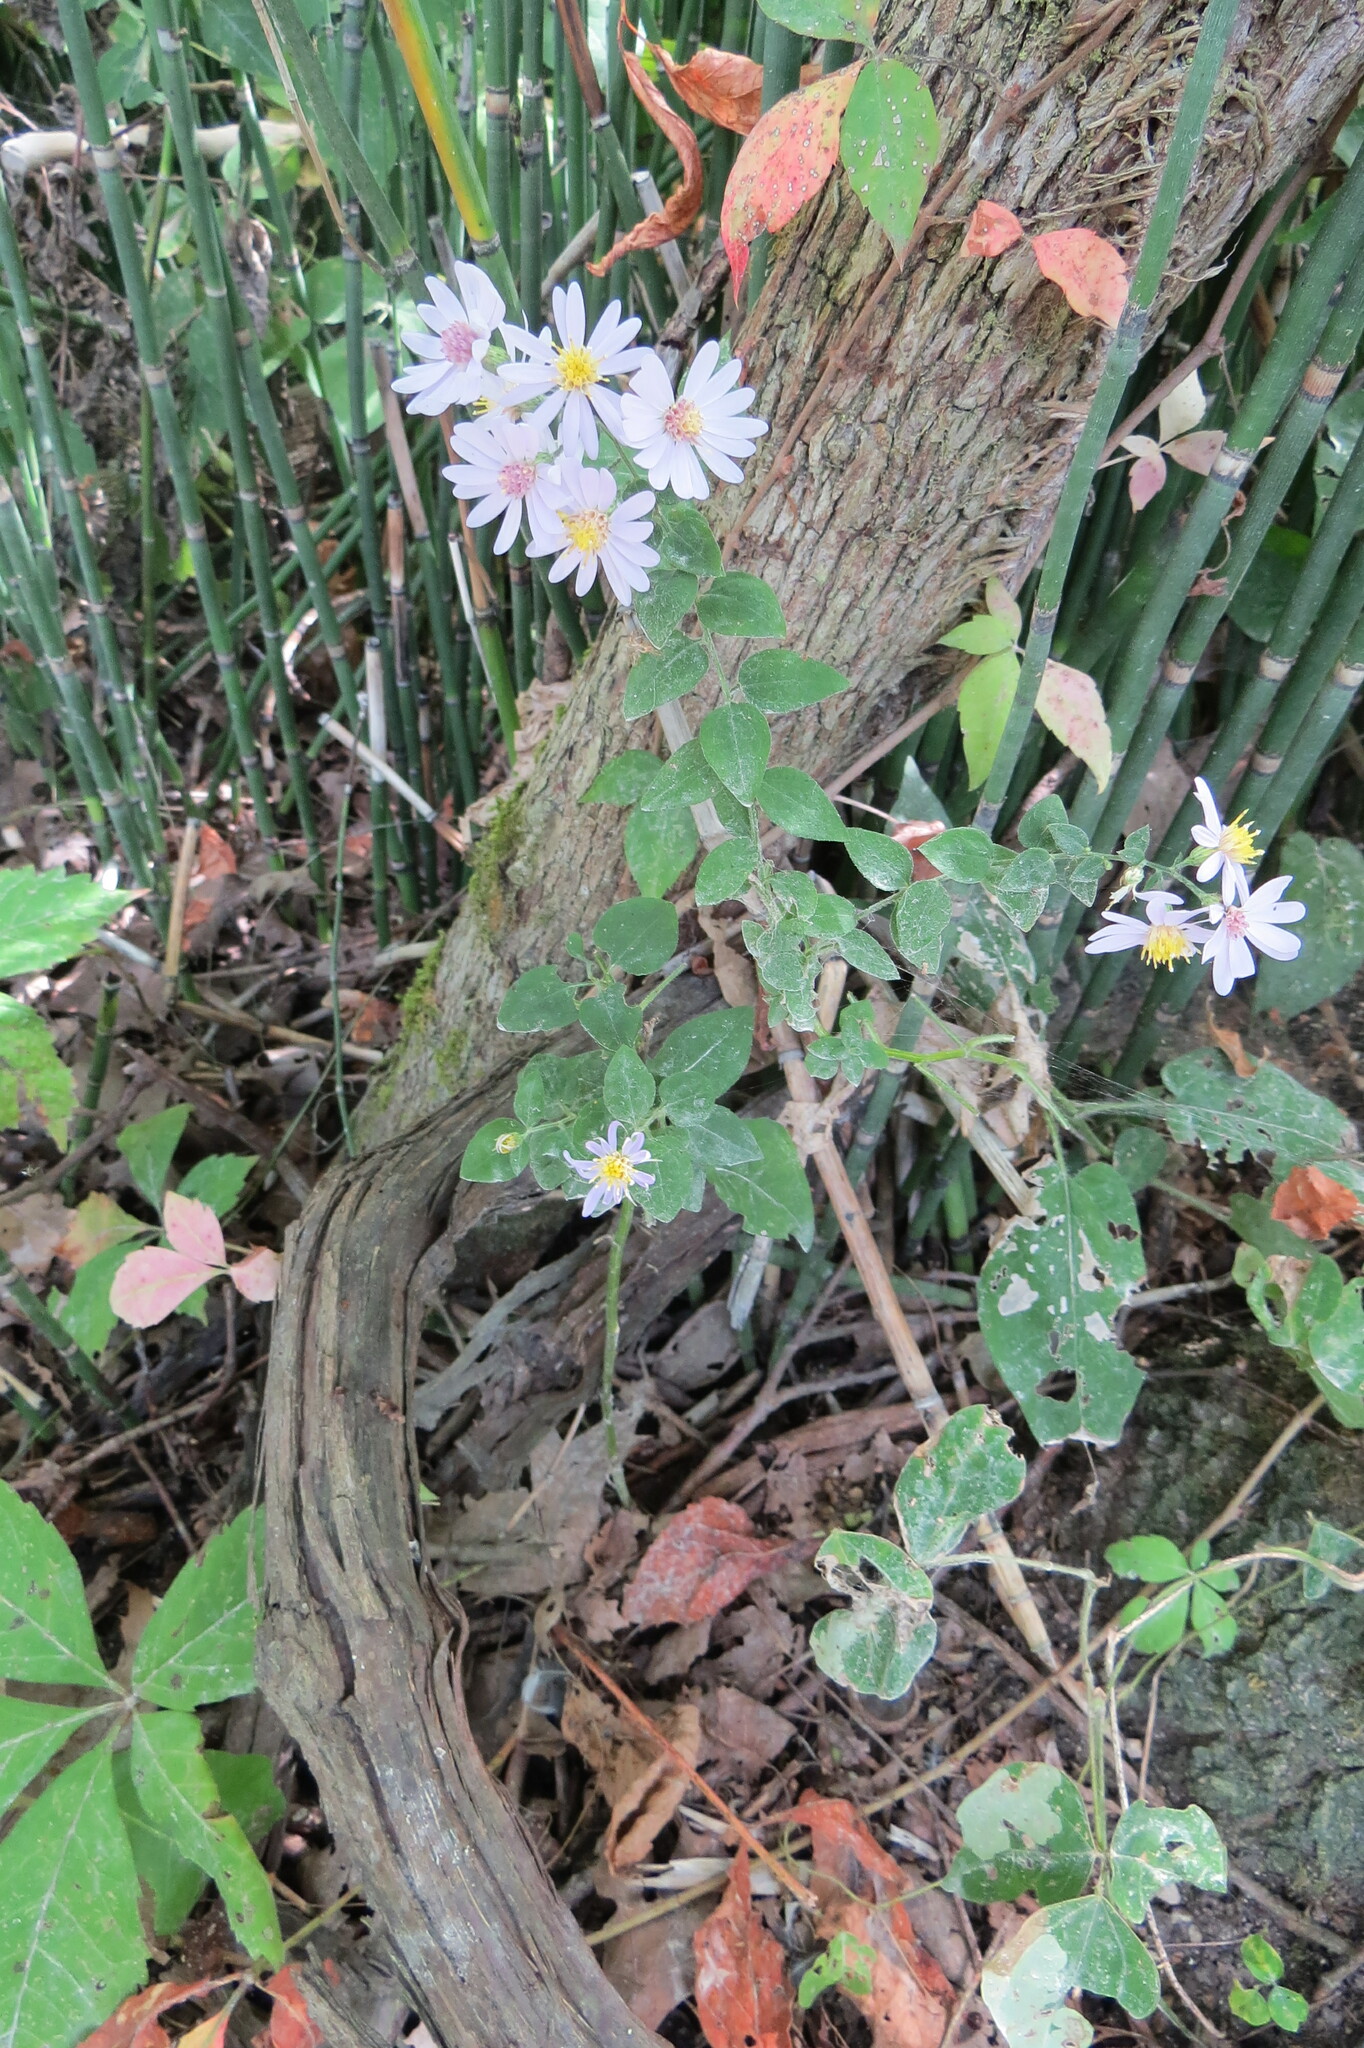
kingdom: Plantae
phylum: Tracheophyta
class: Magnoliopsida
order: Asterales
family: Asteraceae
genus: Symphyotrichum
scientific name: Symphyotrichum shortii
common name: Short's aster
